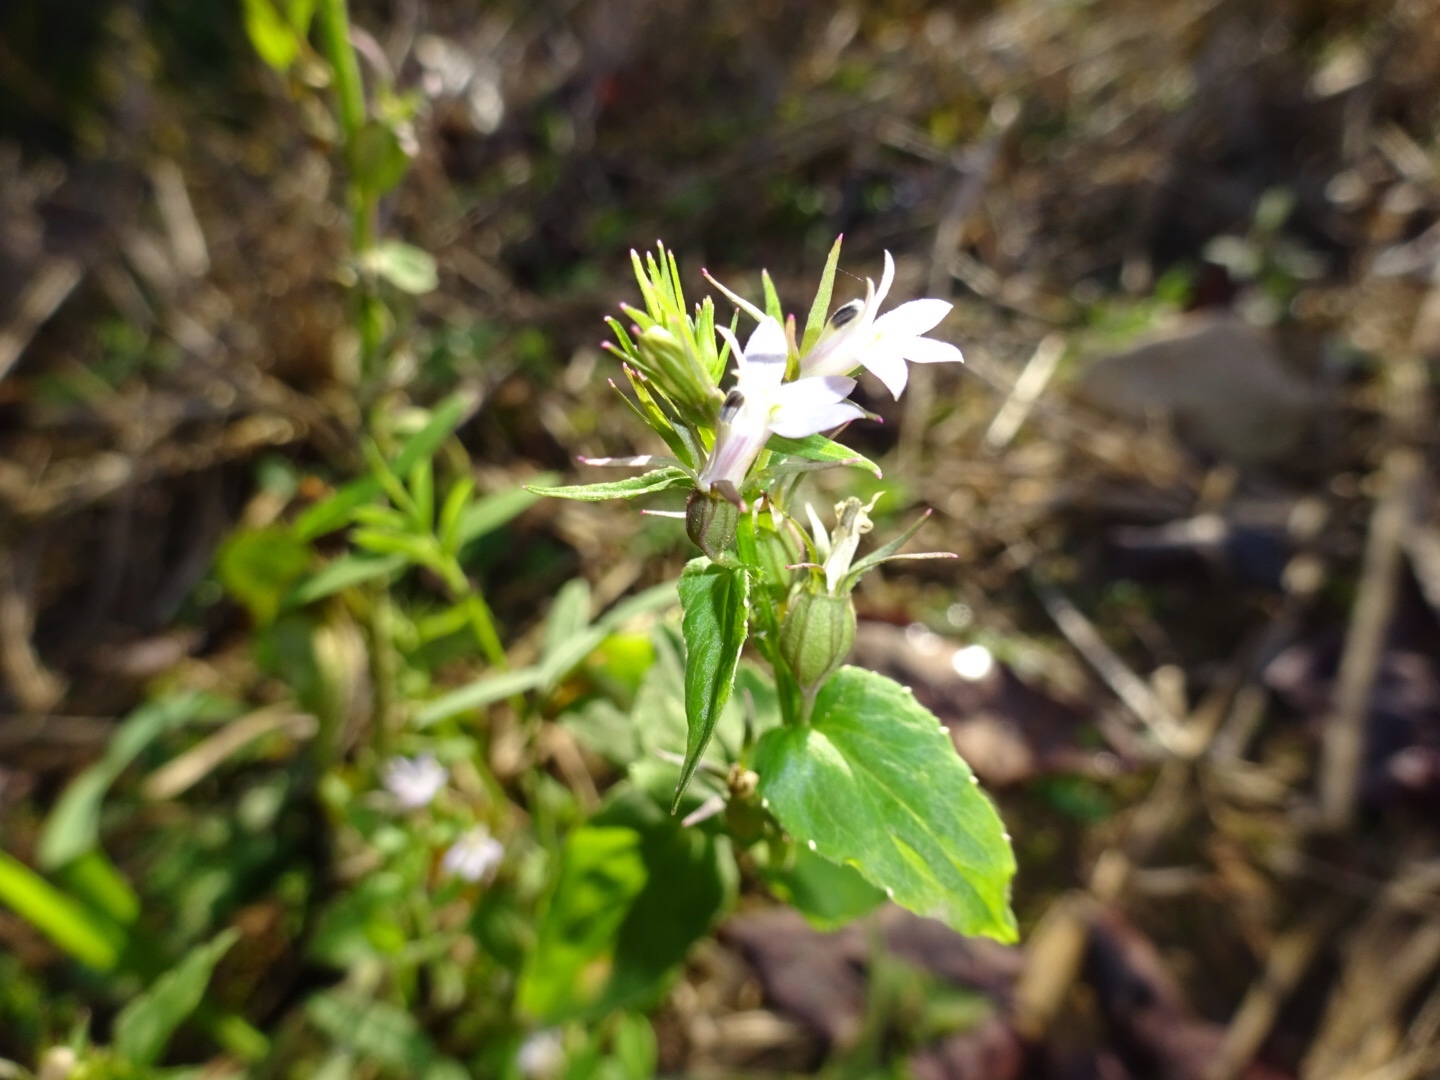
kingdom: Plantae
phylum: Tracheophyta
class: Magnoliopsida
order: Asterales
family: Campanulaceae
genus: Lobelia
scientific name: Lobelia inflata
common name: Indian tobacco
